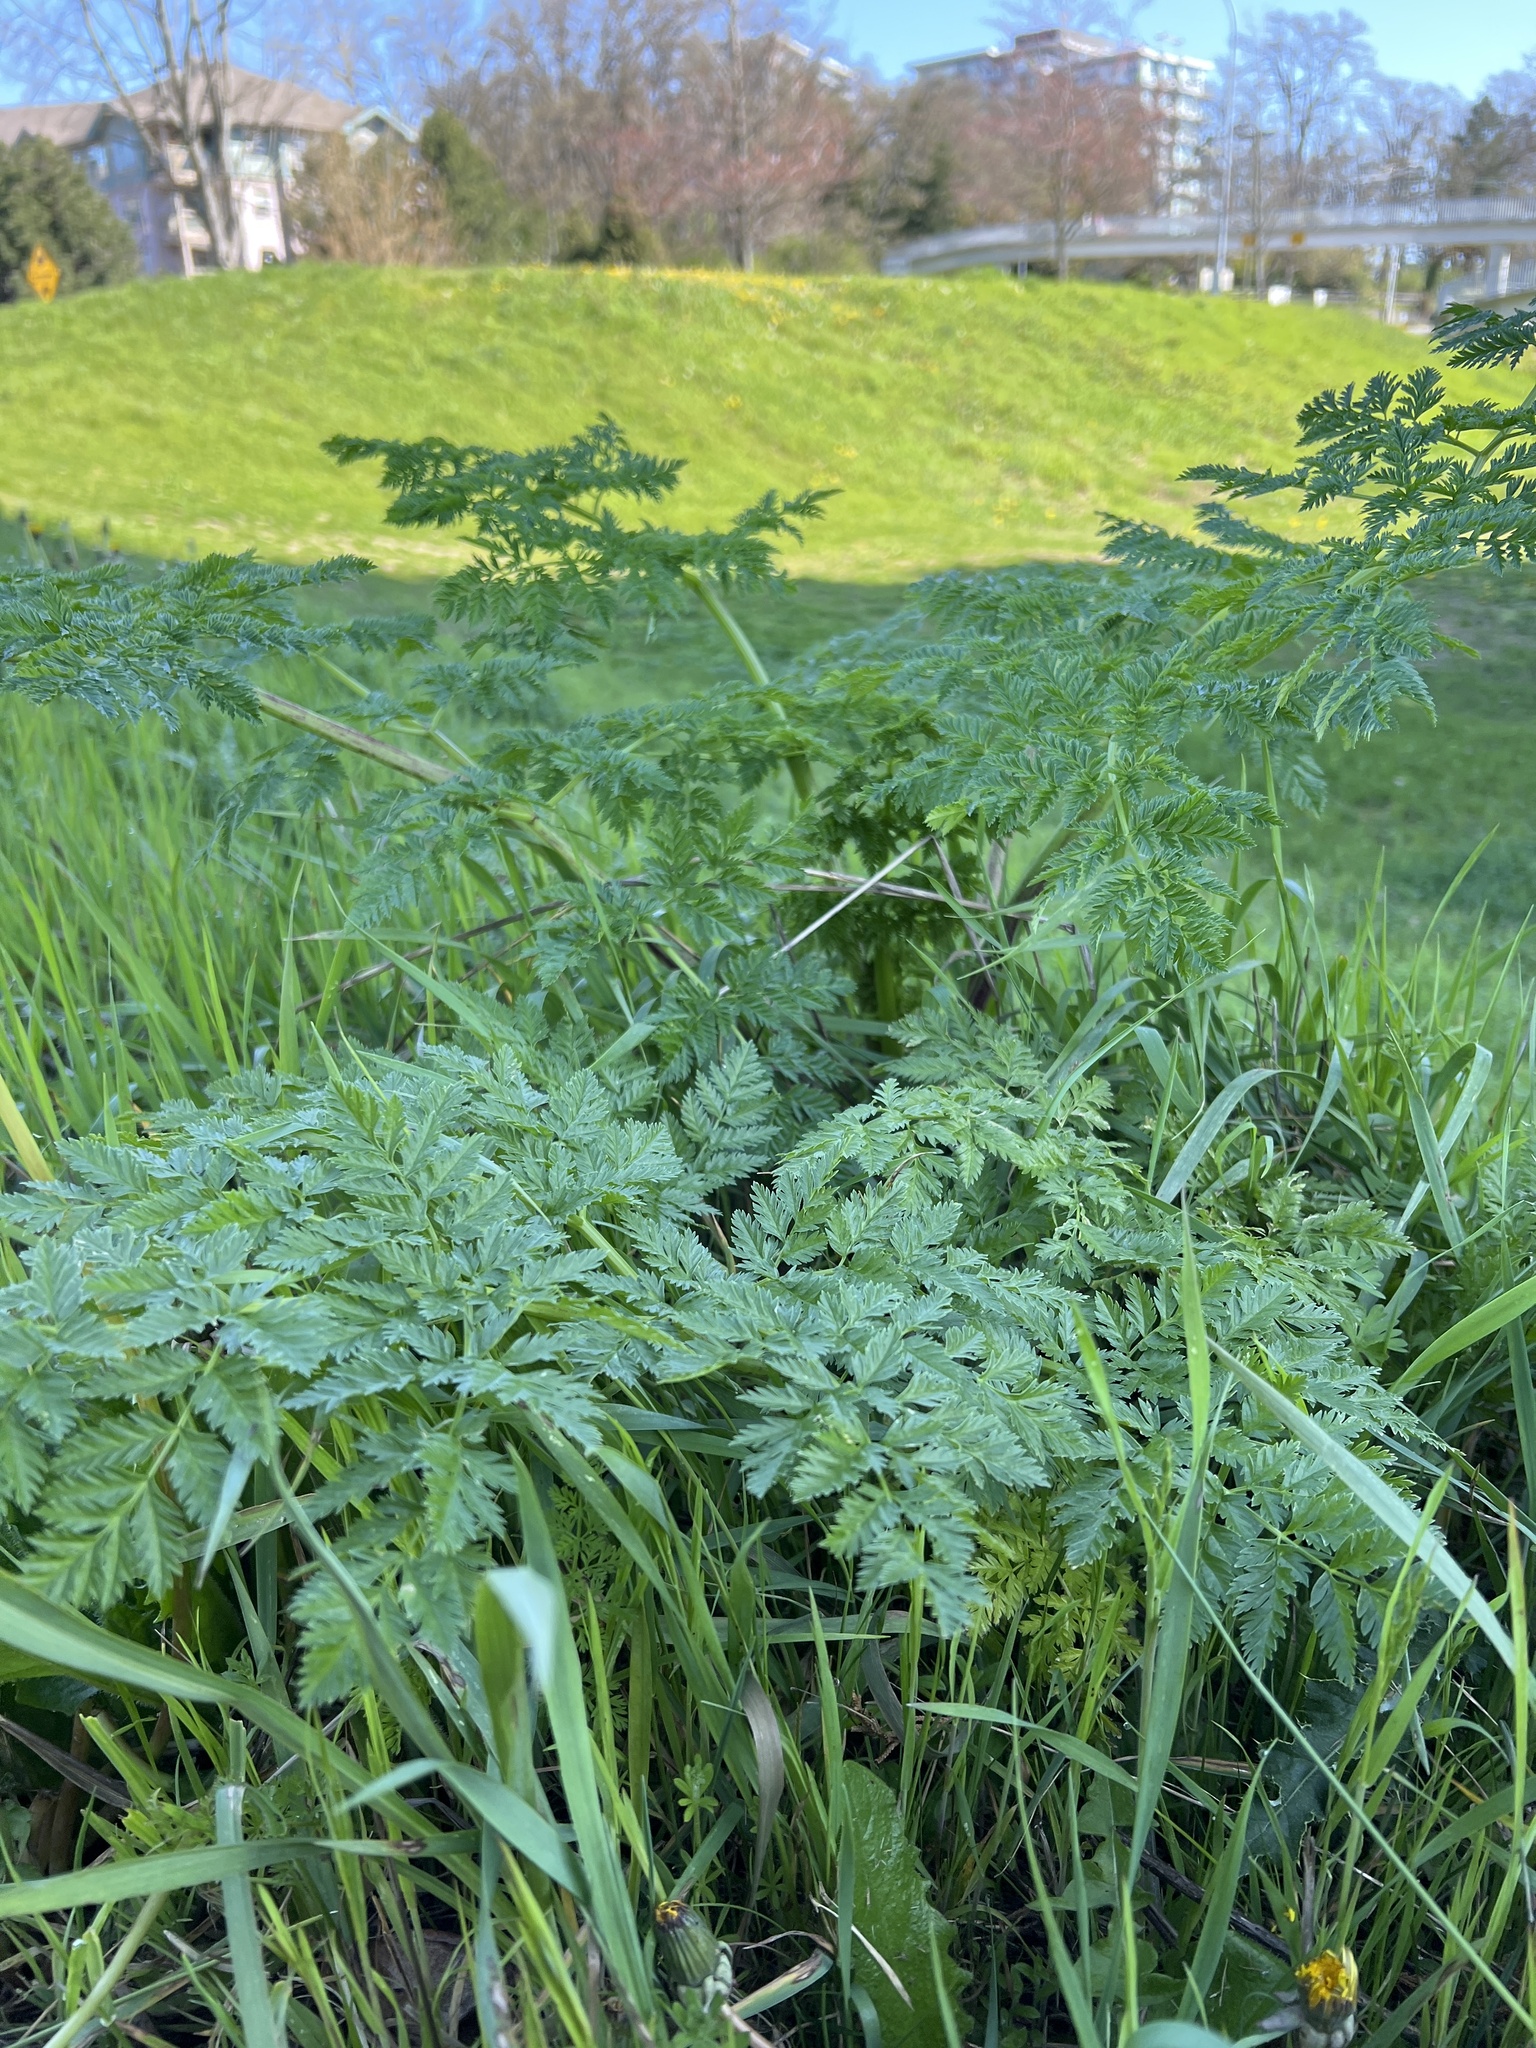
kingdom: Plantae
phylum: Tracheophyta
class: Magnoliopsida
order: Apiales
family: Apiaceae
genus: Conium
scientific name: Conium maculatum
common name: Hemlock
